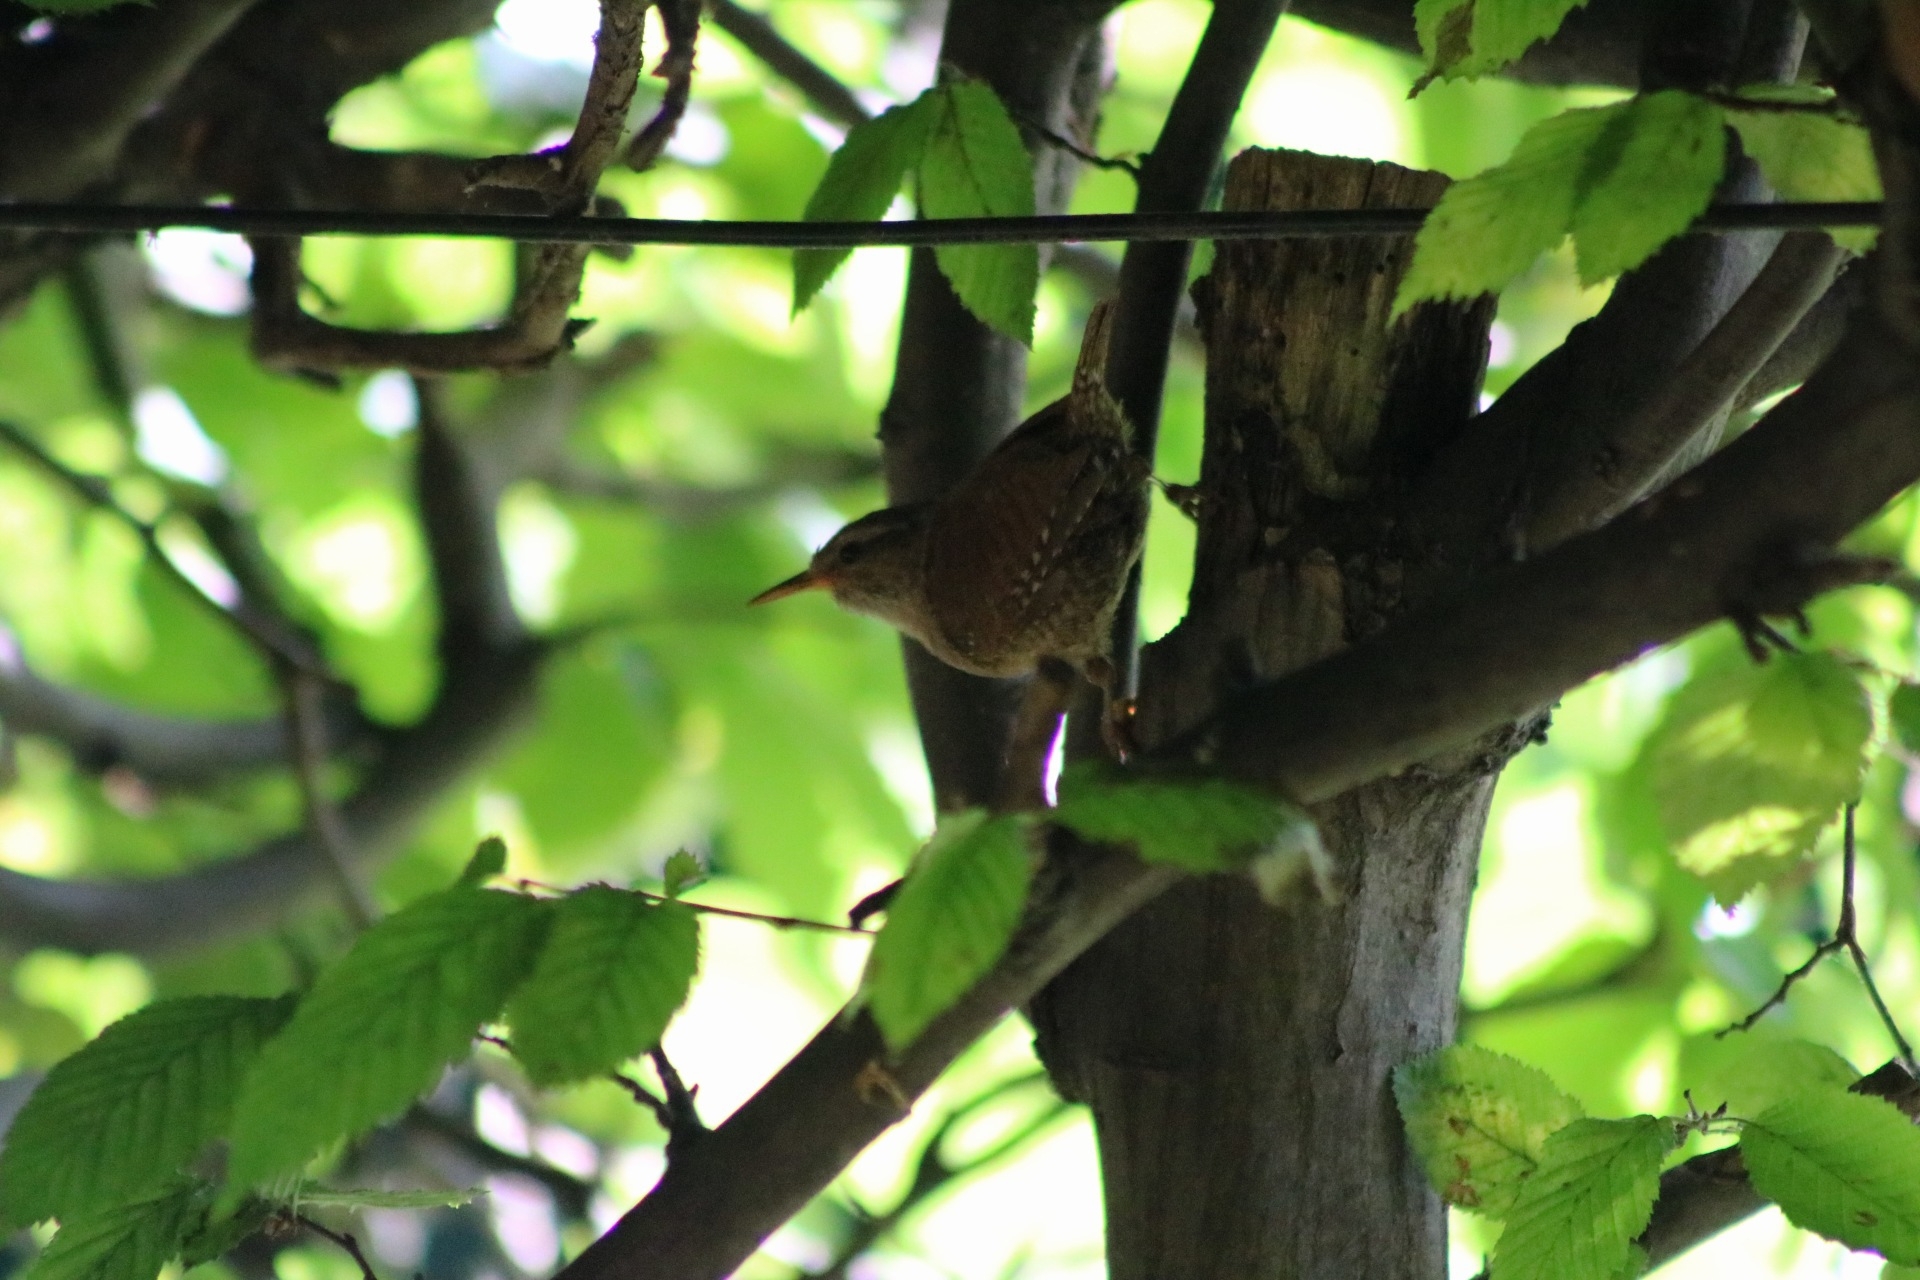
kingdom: Animalia
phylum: Chordata
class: Aves
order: Passeriformes
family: Troglodytidae
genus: Troglodytes
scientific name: Troglodytes troglodytes
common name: Eurasian wren
